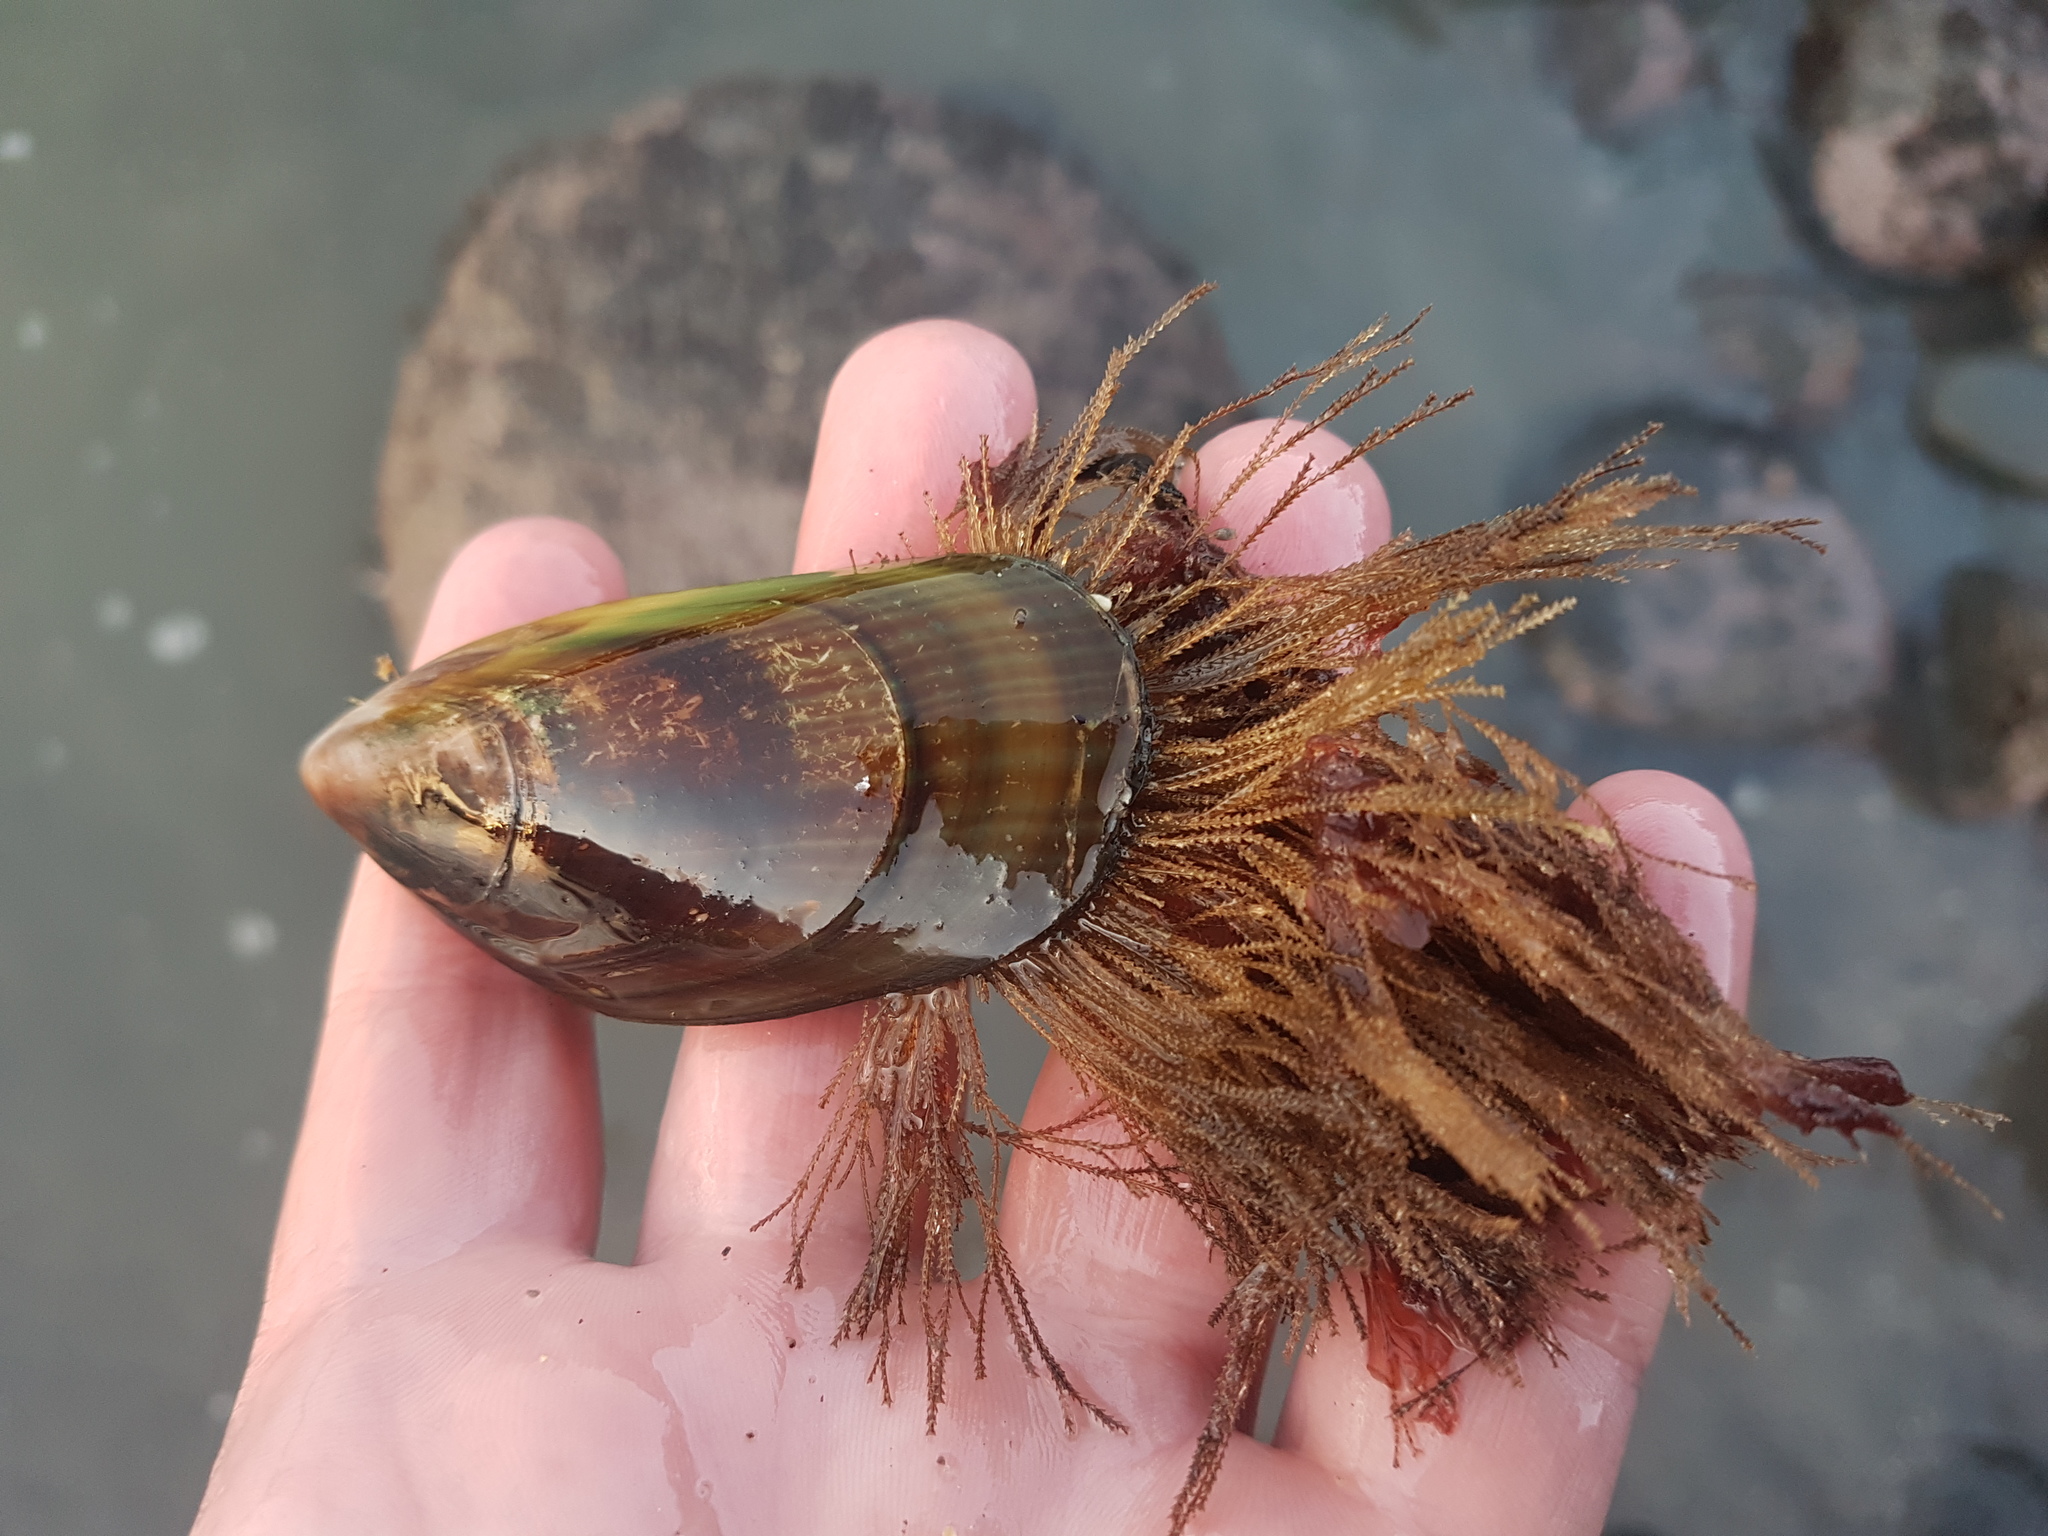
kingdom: Animalia
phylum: Mollusca
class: Bivalvia
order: Mytilida
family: Mytilidae
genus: Perna
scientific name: Perna canaliculus
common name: New zealand greenshelltm
